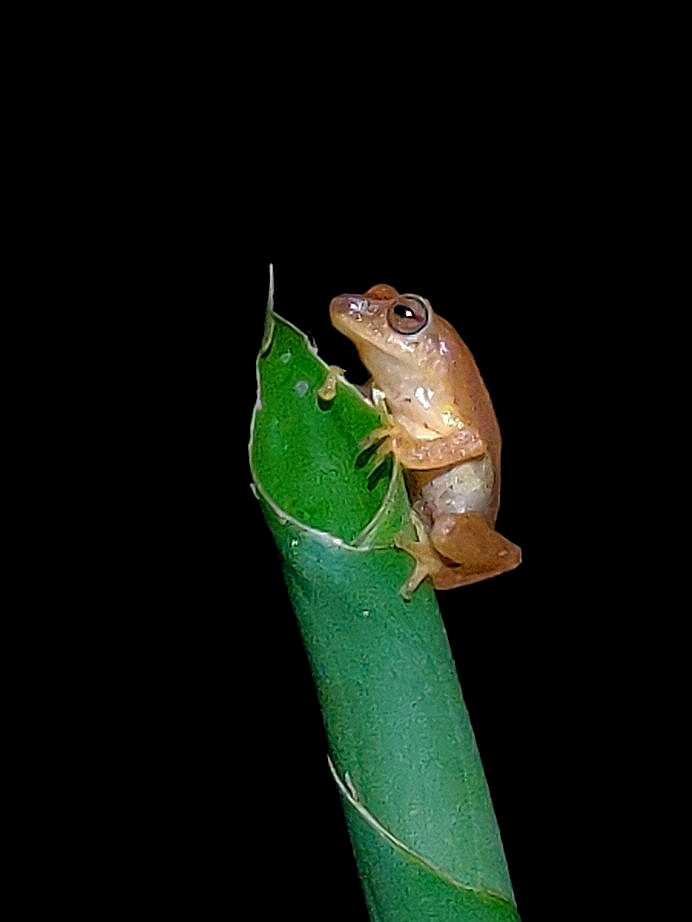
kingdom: Animalia
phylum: Chordata
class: Amphibia
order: Anura
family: Rhacophoridae
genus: Raorchestes
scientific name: Raorchestes luteolus
